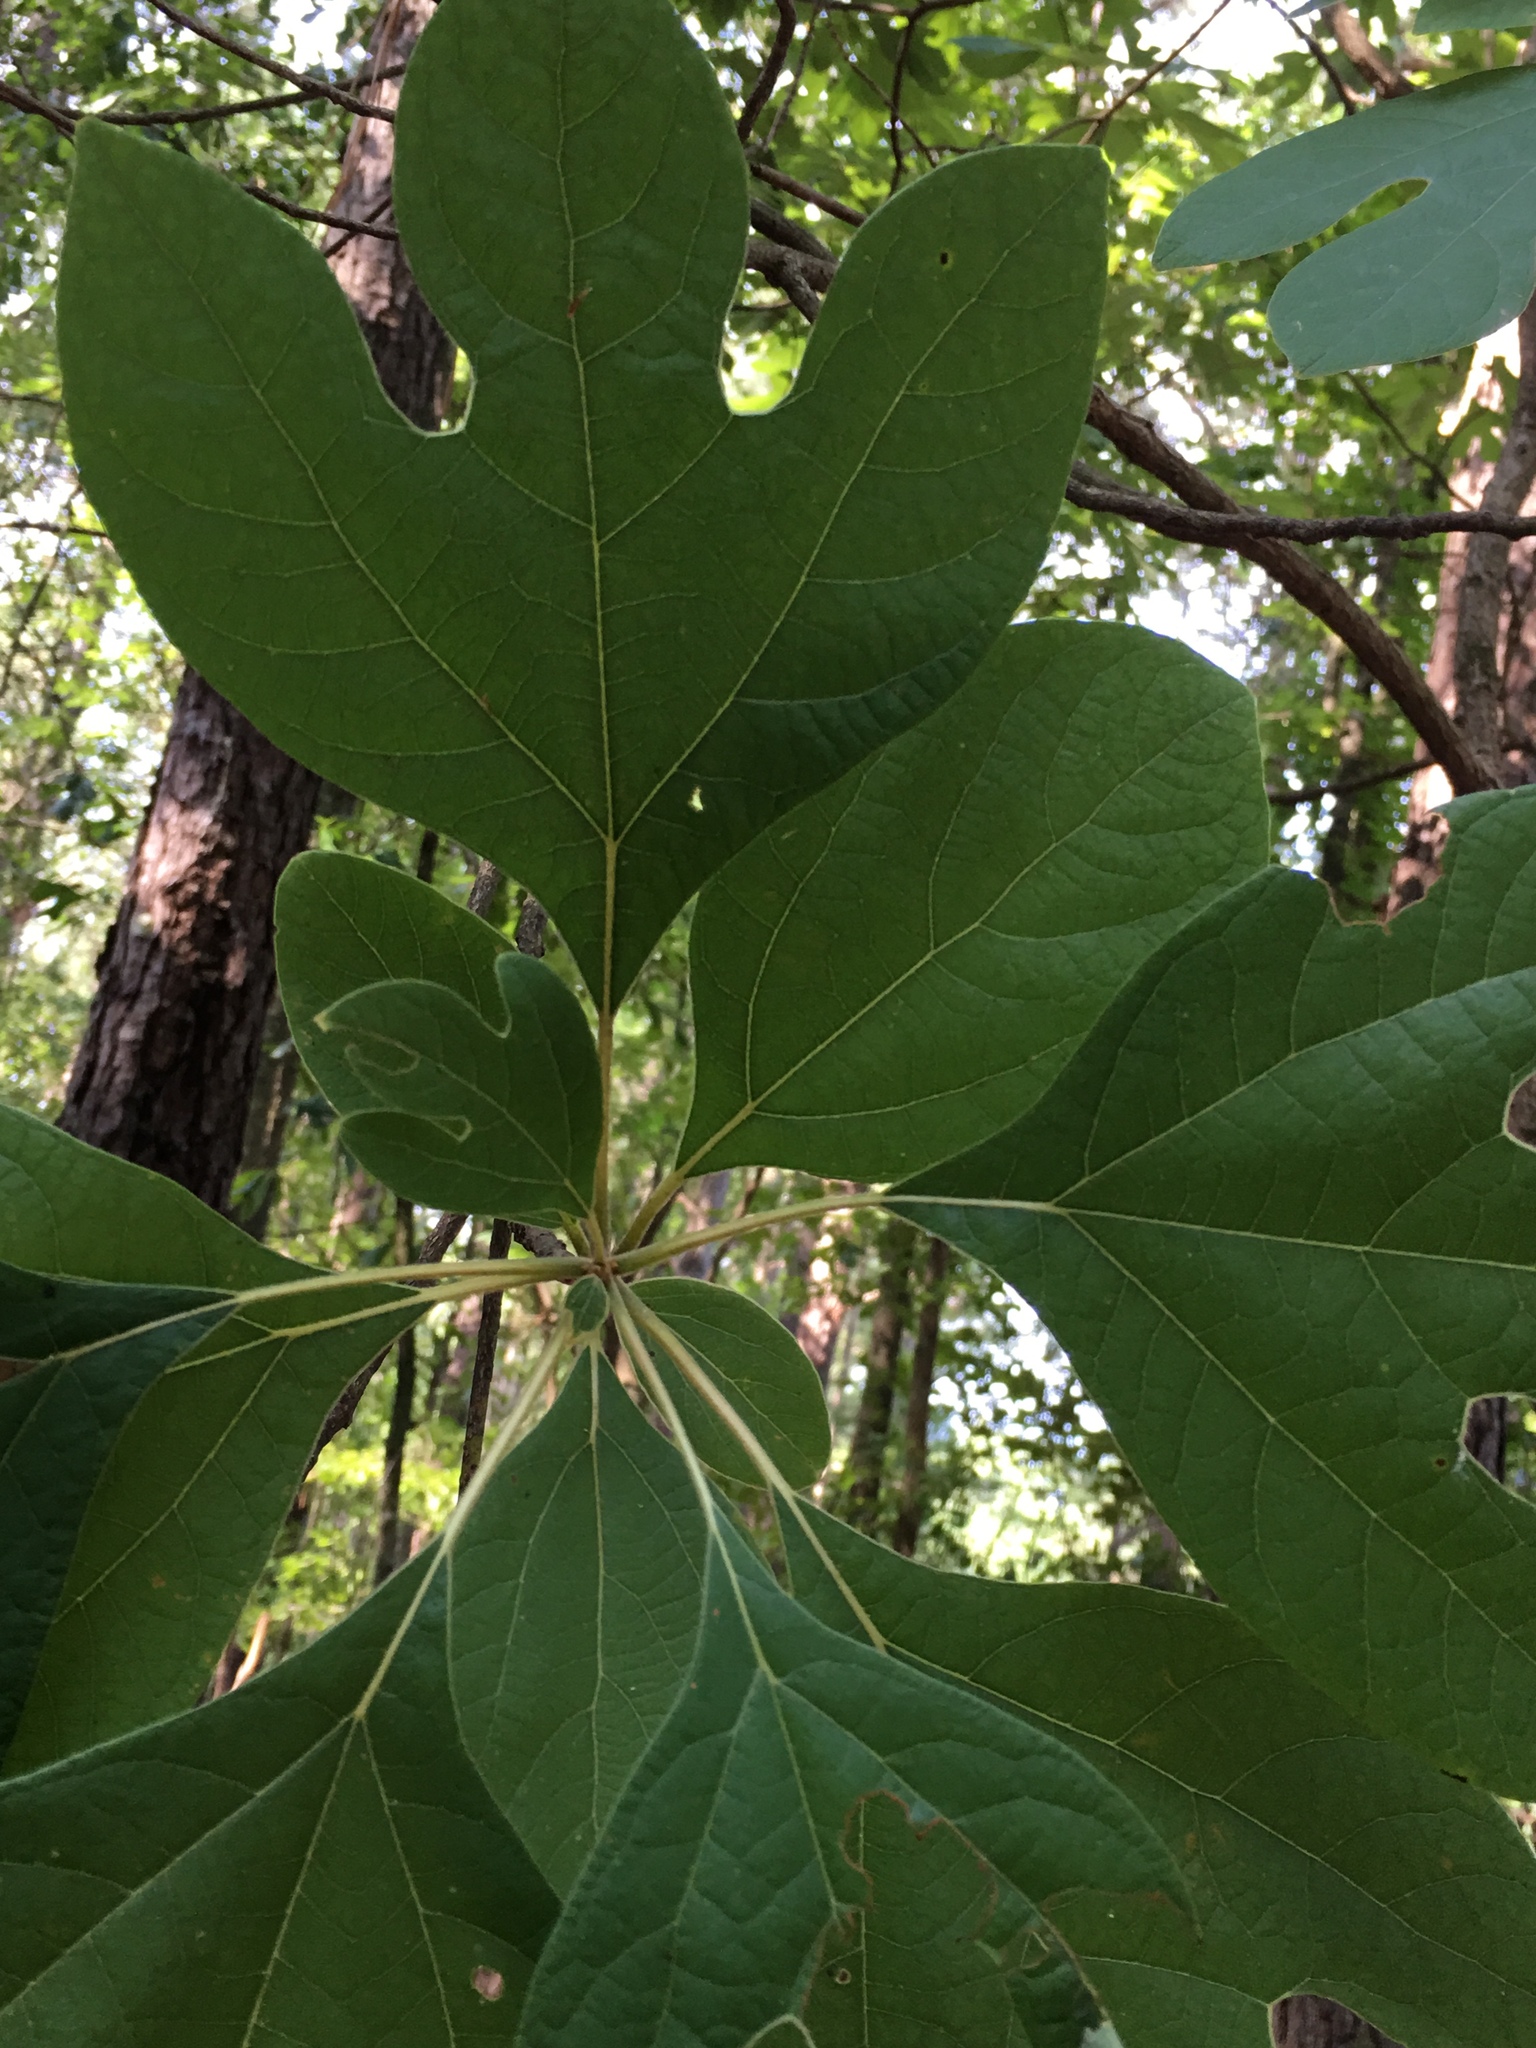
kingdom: Plantae
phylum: Tracheophyta
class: Magnoliopsida
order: Laurales
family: Lauraceae
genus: Sassafras
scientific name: Sassafras albidum
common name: Sassafras
